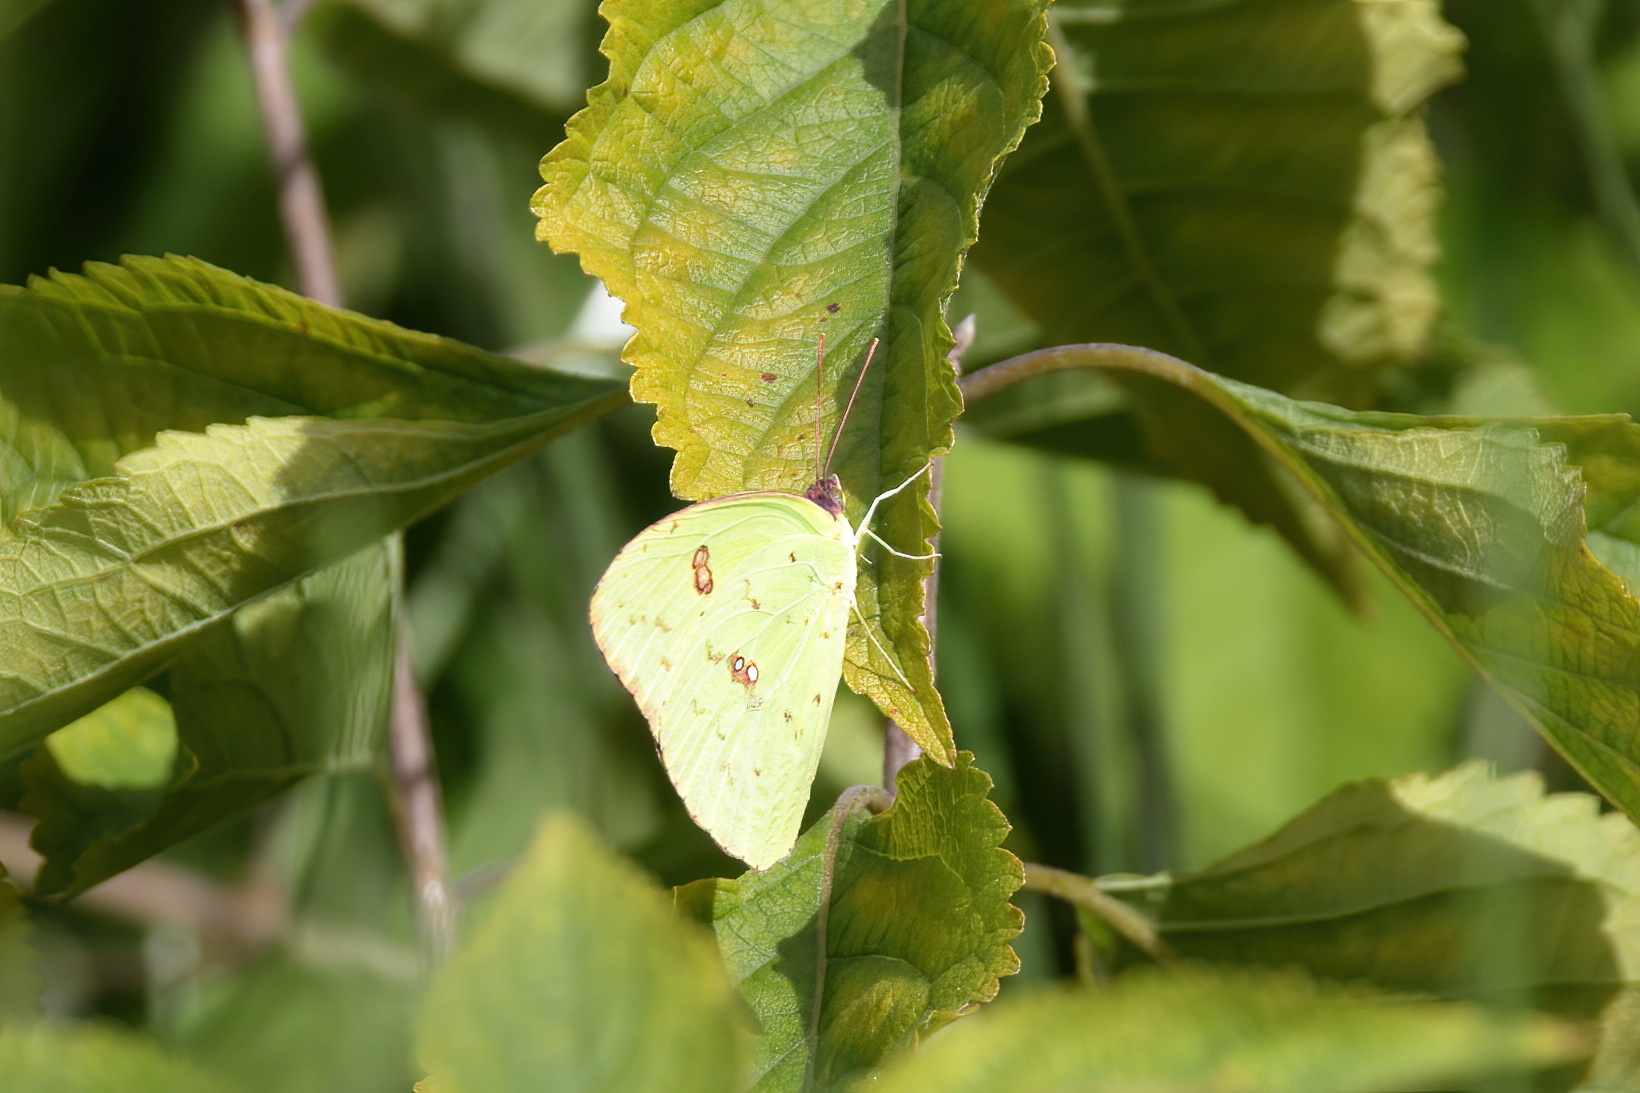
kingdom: Animalia
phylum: Arthropoda
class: Insecta
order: Lepidoptera
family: Pieridae
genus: Phoebis
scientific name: Phoebis sennae
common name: Cloudless sulphur
